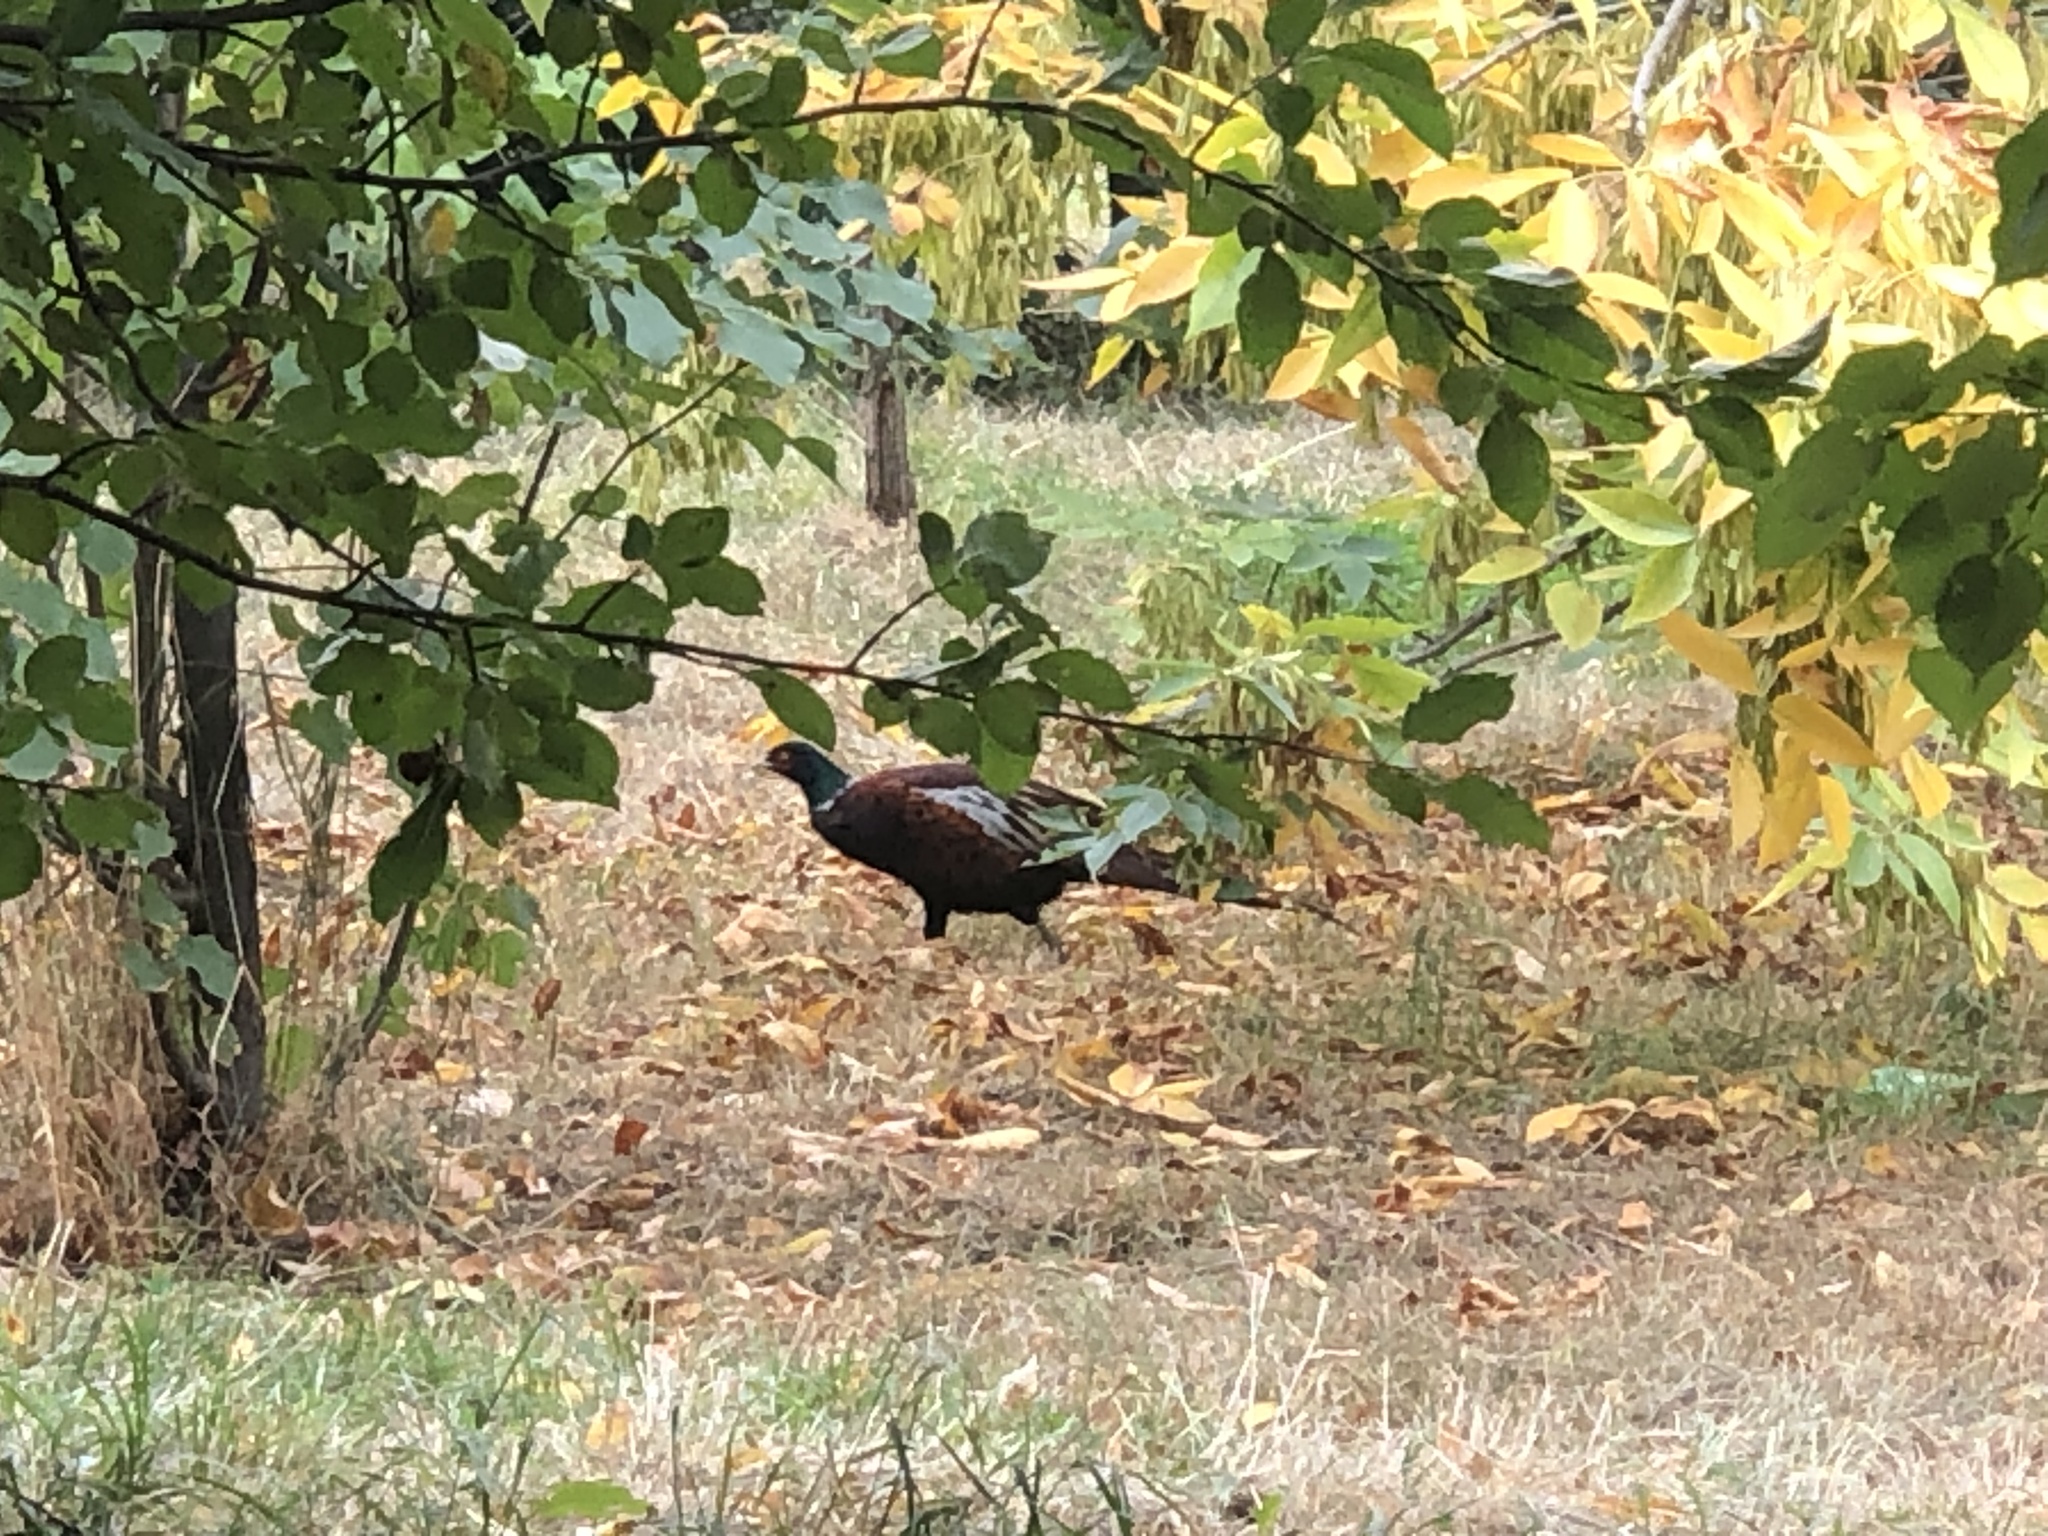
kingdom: Animalia
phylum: Chordata
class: Aves
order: Galliformes
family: Phasianidae
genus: Phasianus
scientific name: Phasianus colchicus
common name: Common pheasant
